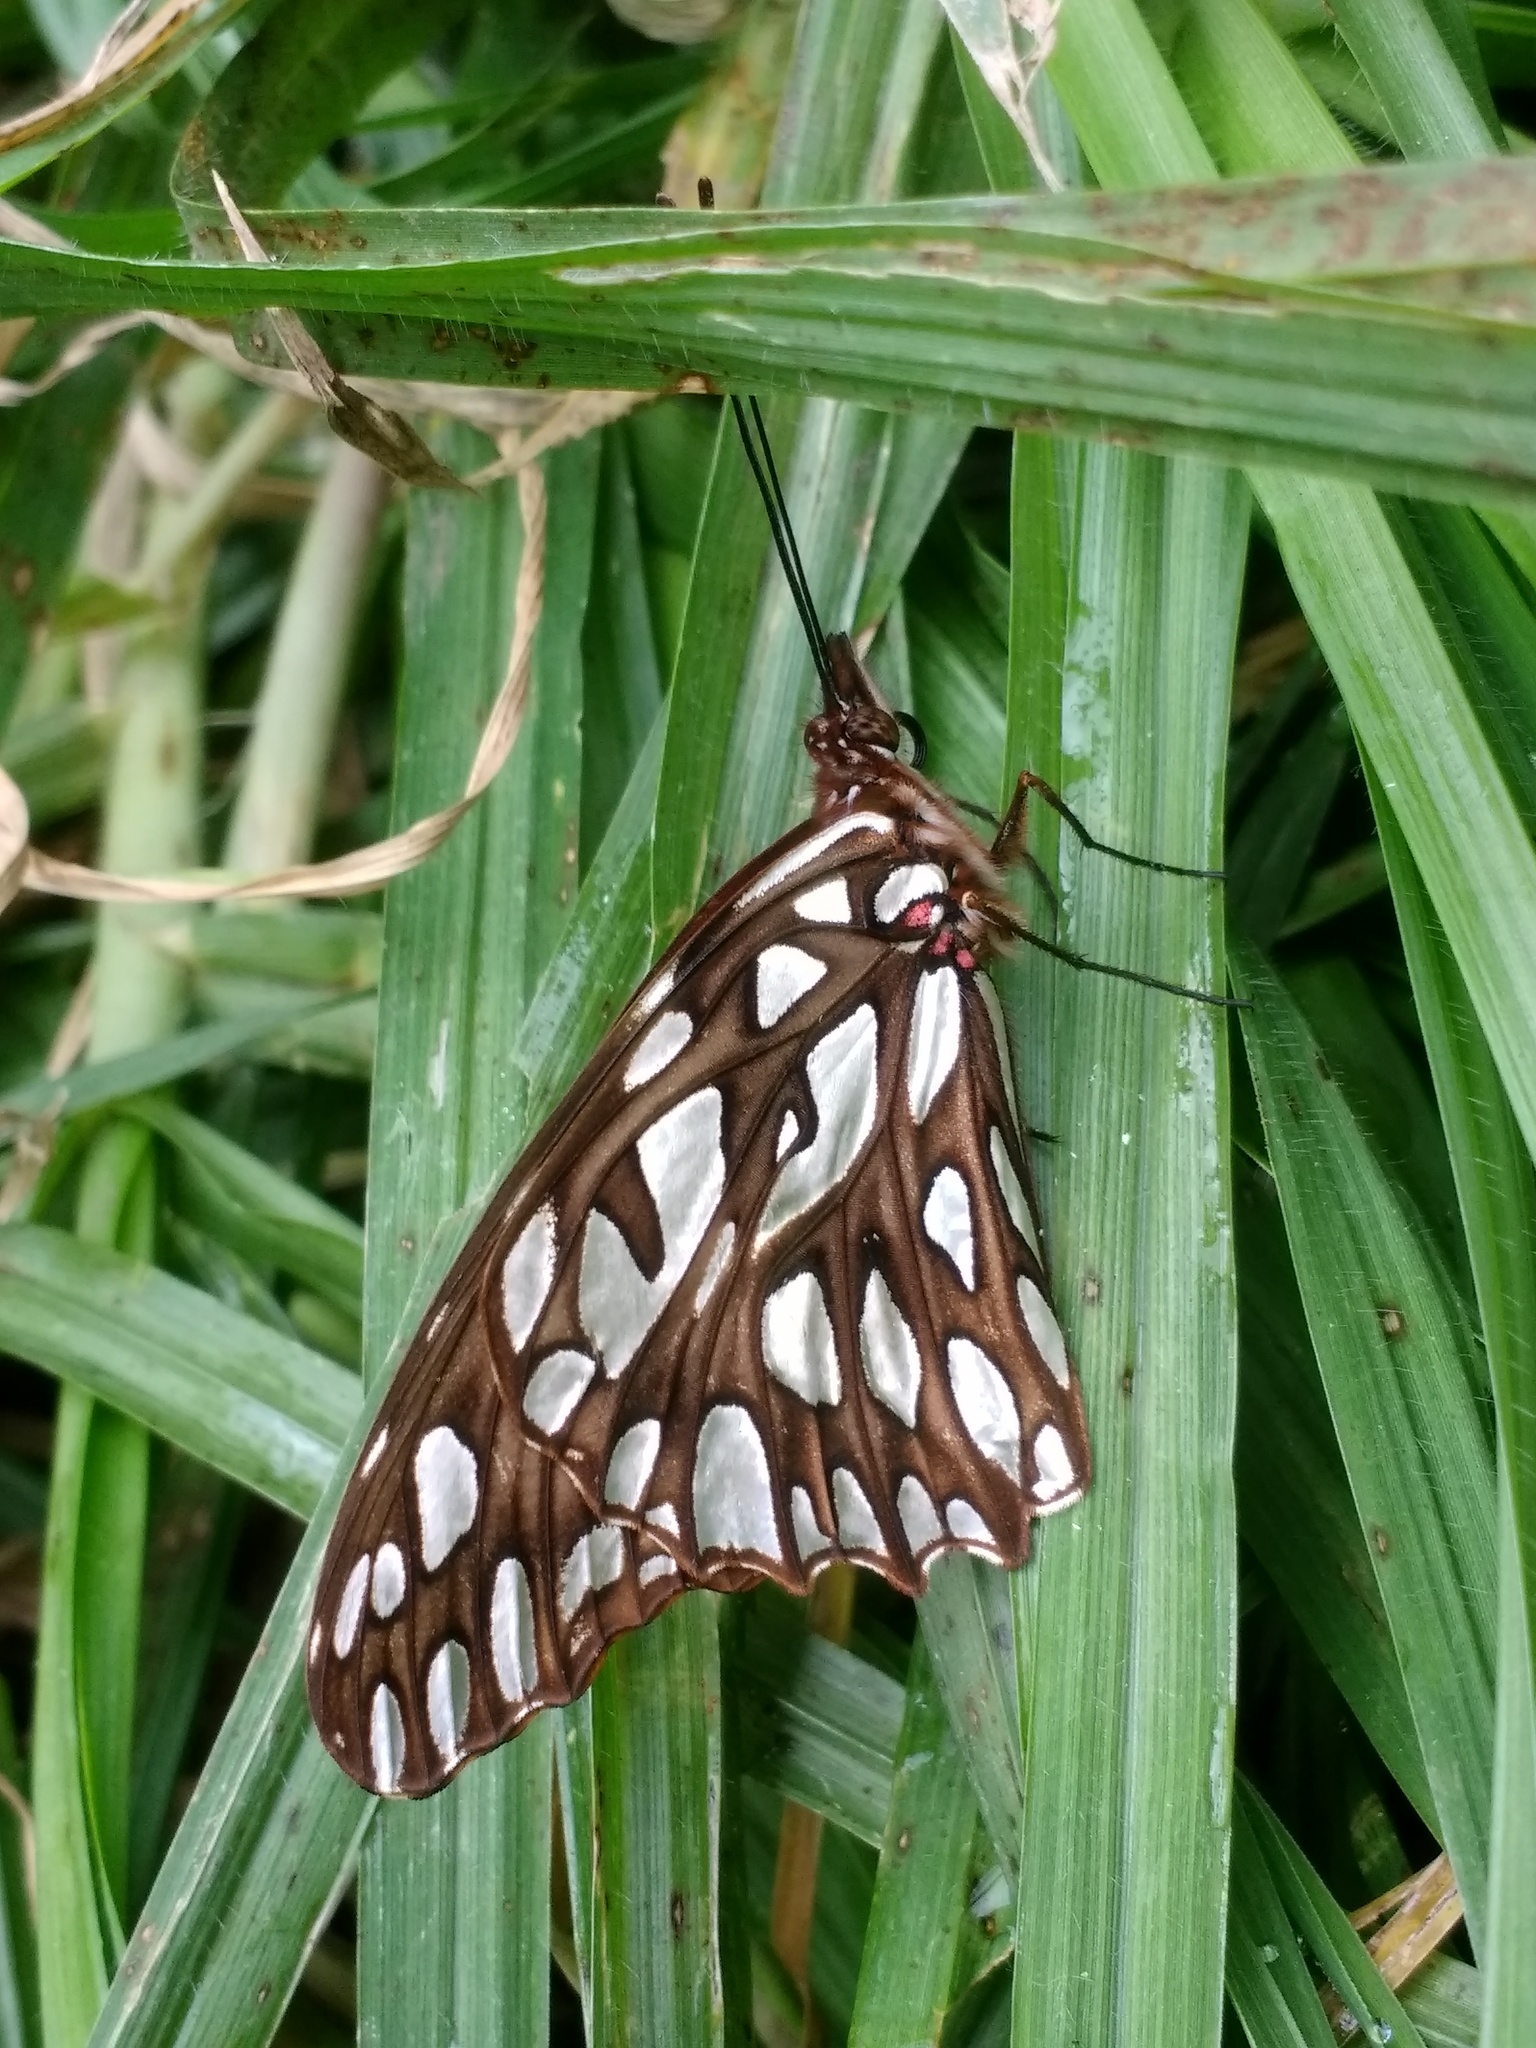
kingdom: Animalia
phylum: Arthropoda
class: Insecta
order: Lepidoptera
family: Nymphalidae
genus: Dione
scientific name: Dione moneta
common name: Mexican silverspot
